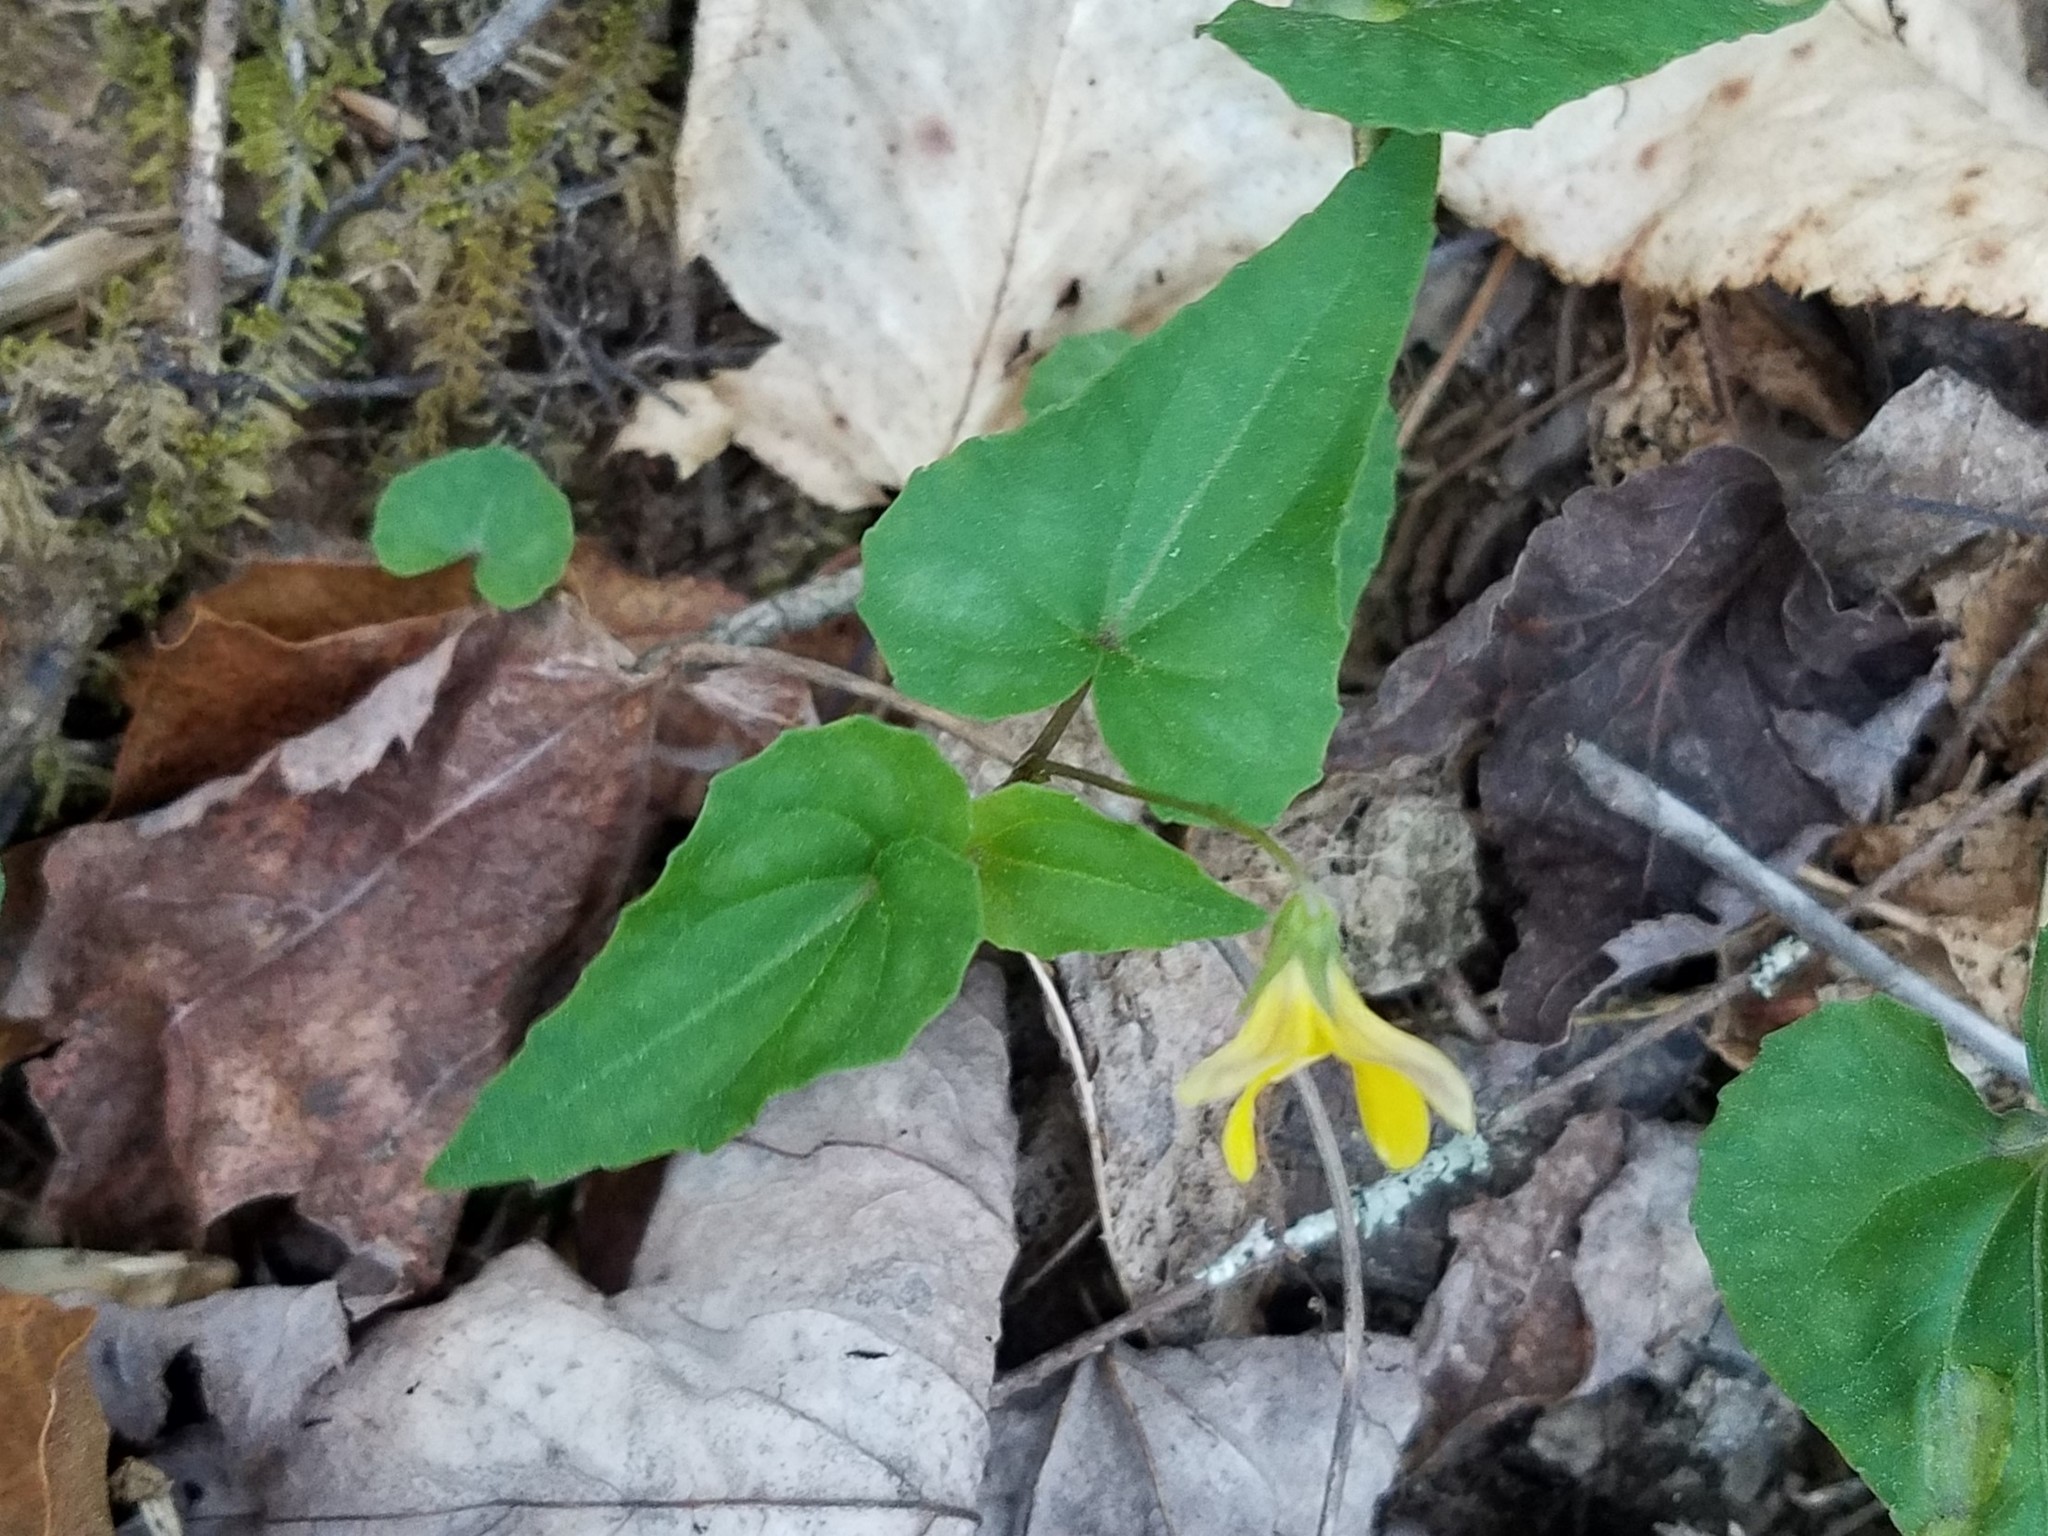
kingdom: Plantae
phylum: Tracheophyta
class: Magnoliopsida
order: Malpighiales
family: Violaceae
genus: Viola
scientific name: Viola hastata
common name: Spear-leaf violet
